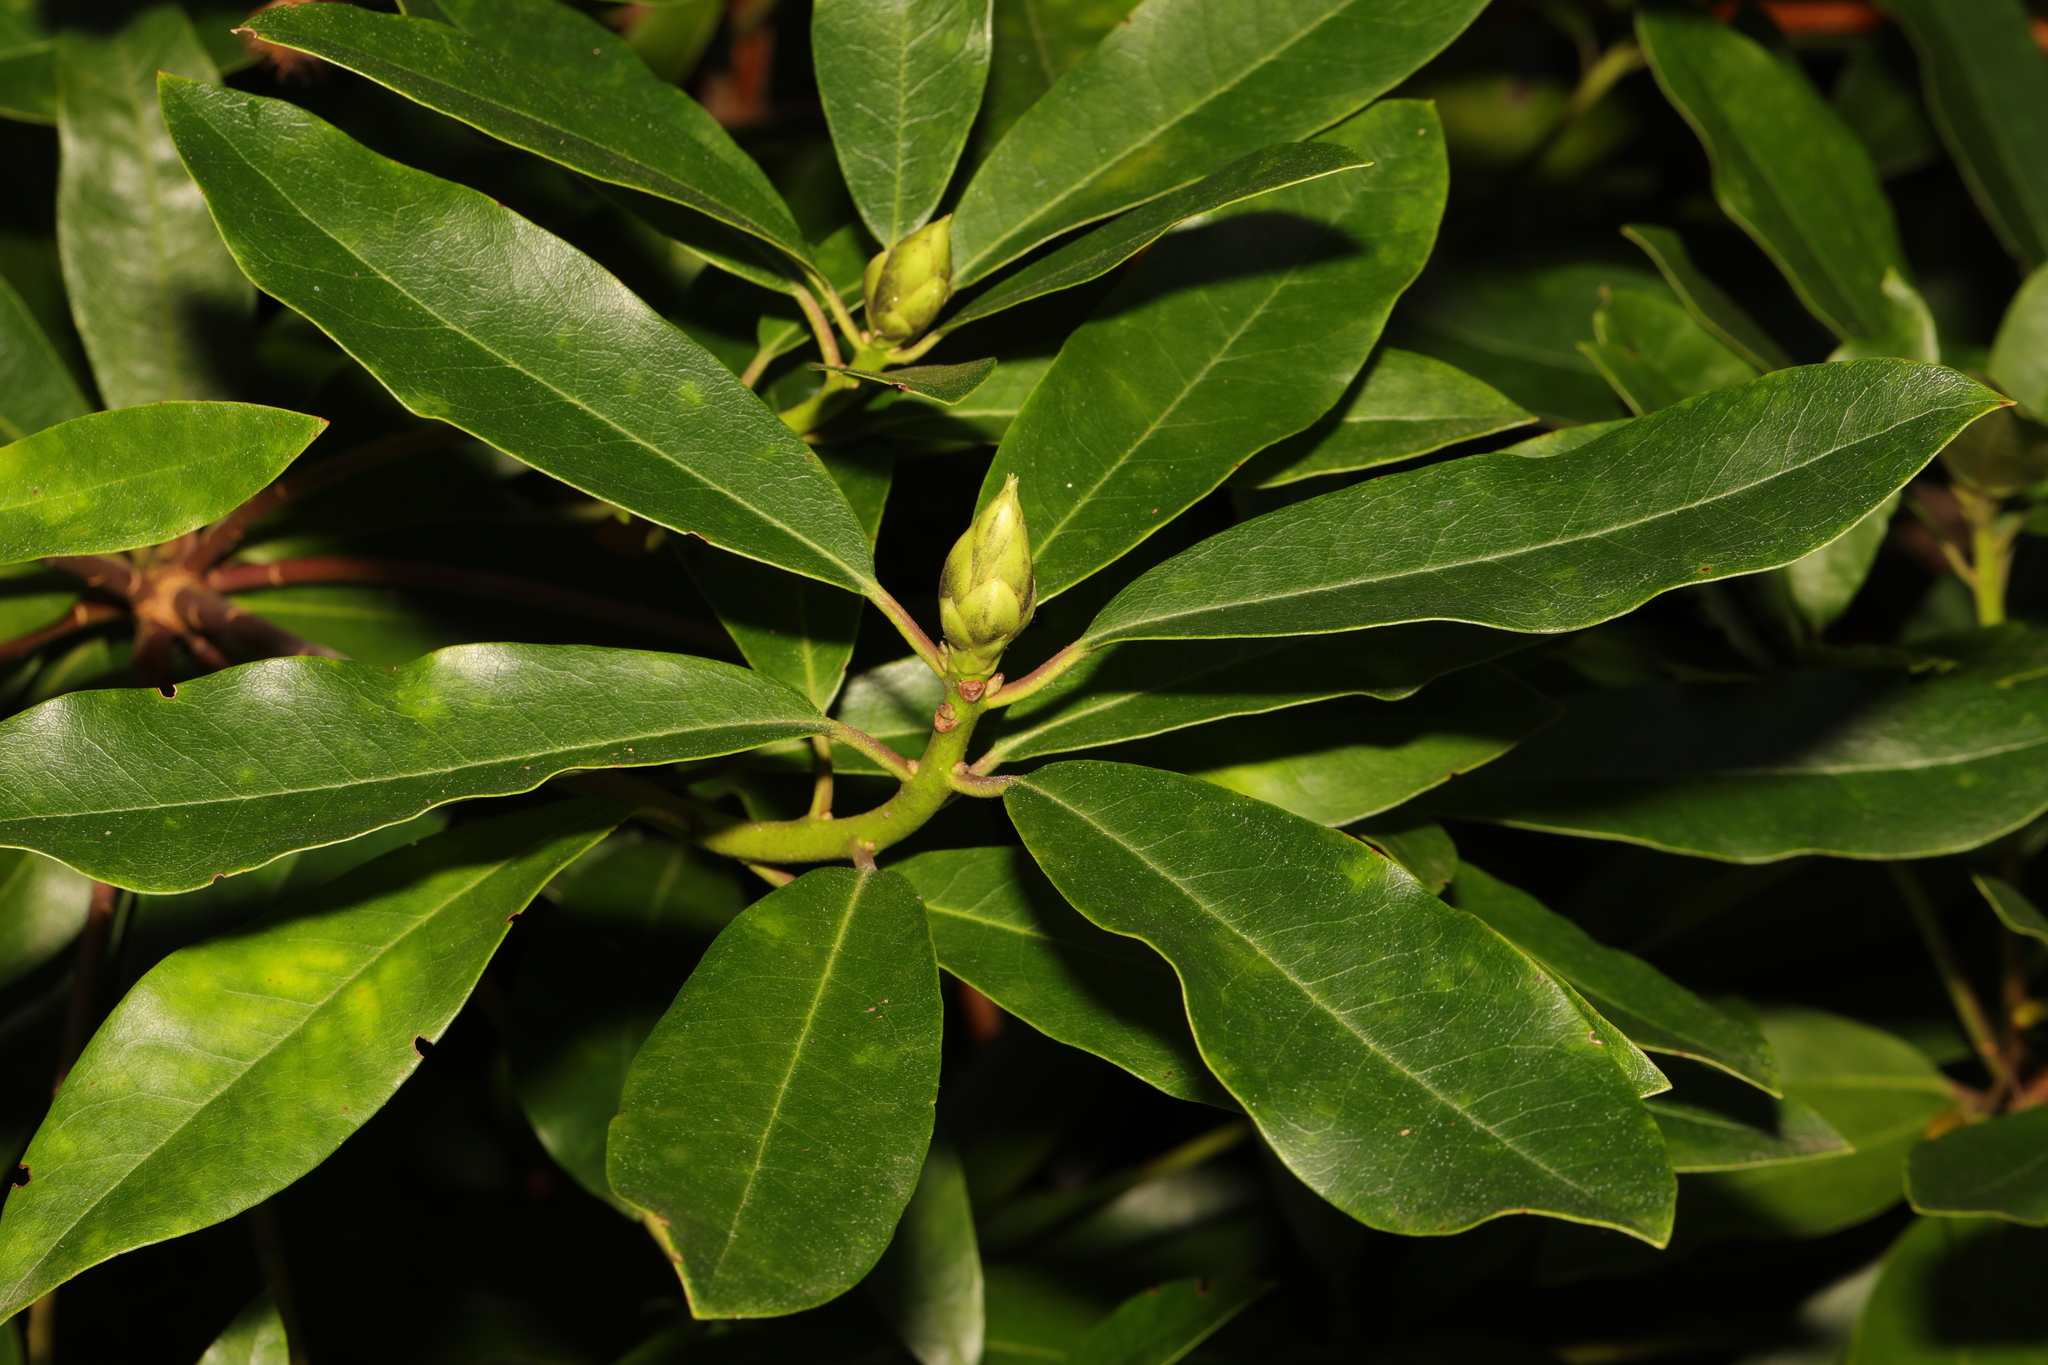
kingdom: Plantae
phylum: Tracheophyta
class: Magnoliopsida
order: Ericales
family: Ericaceae
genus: Rhododendron
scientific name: Rhododendron ponticum
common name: Rhododendron
